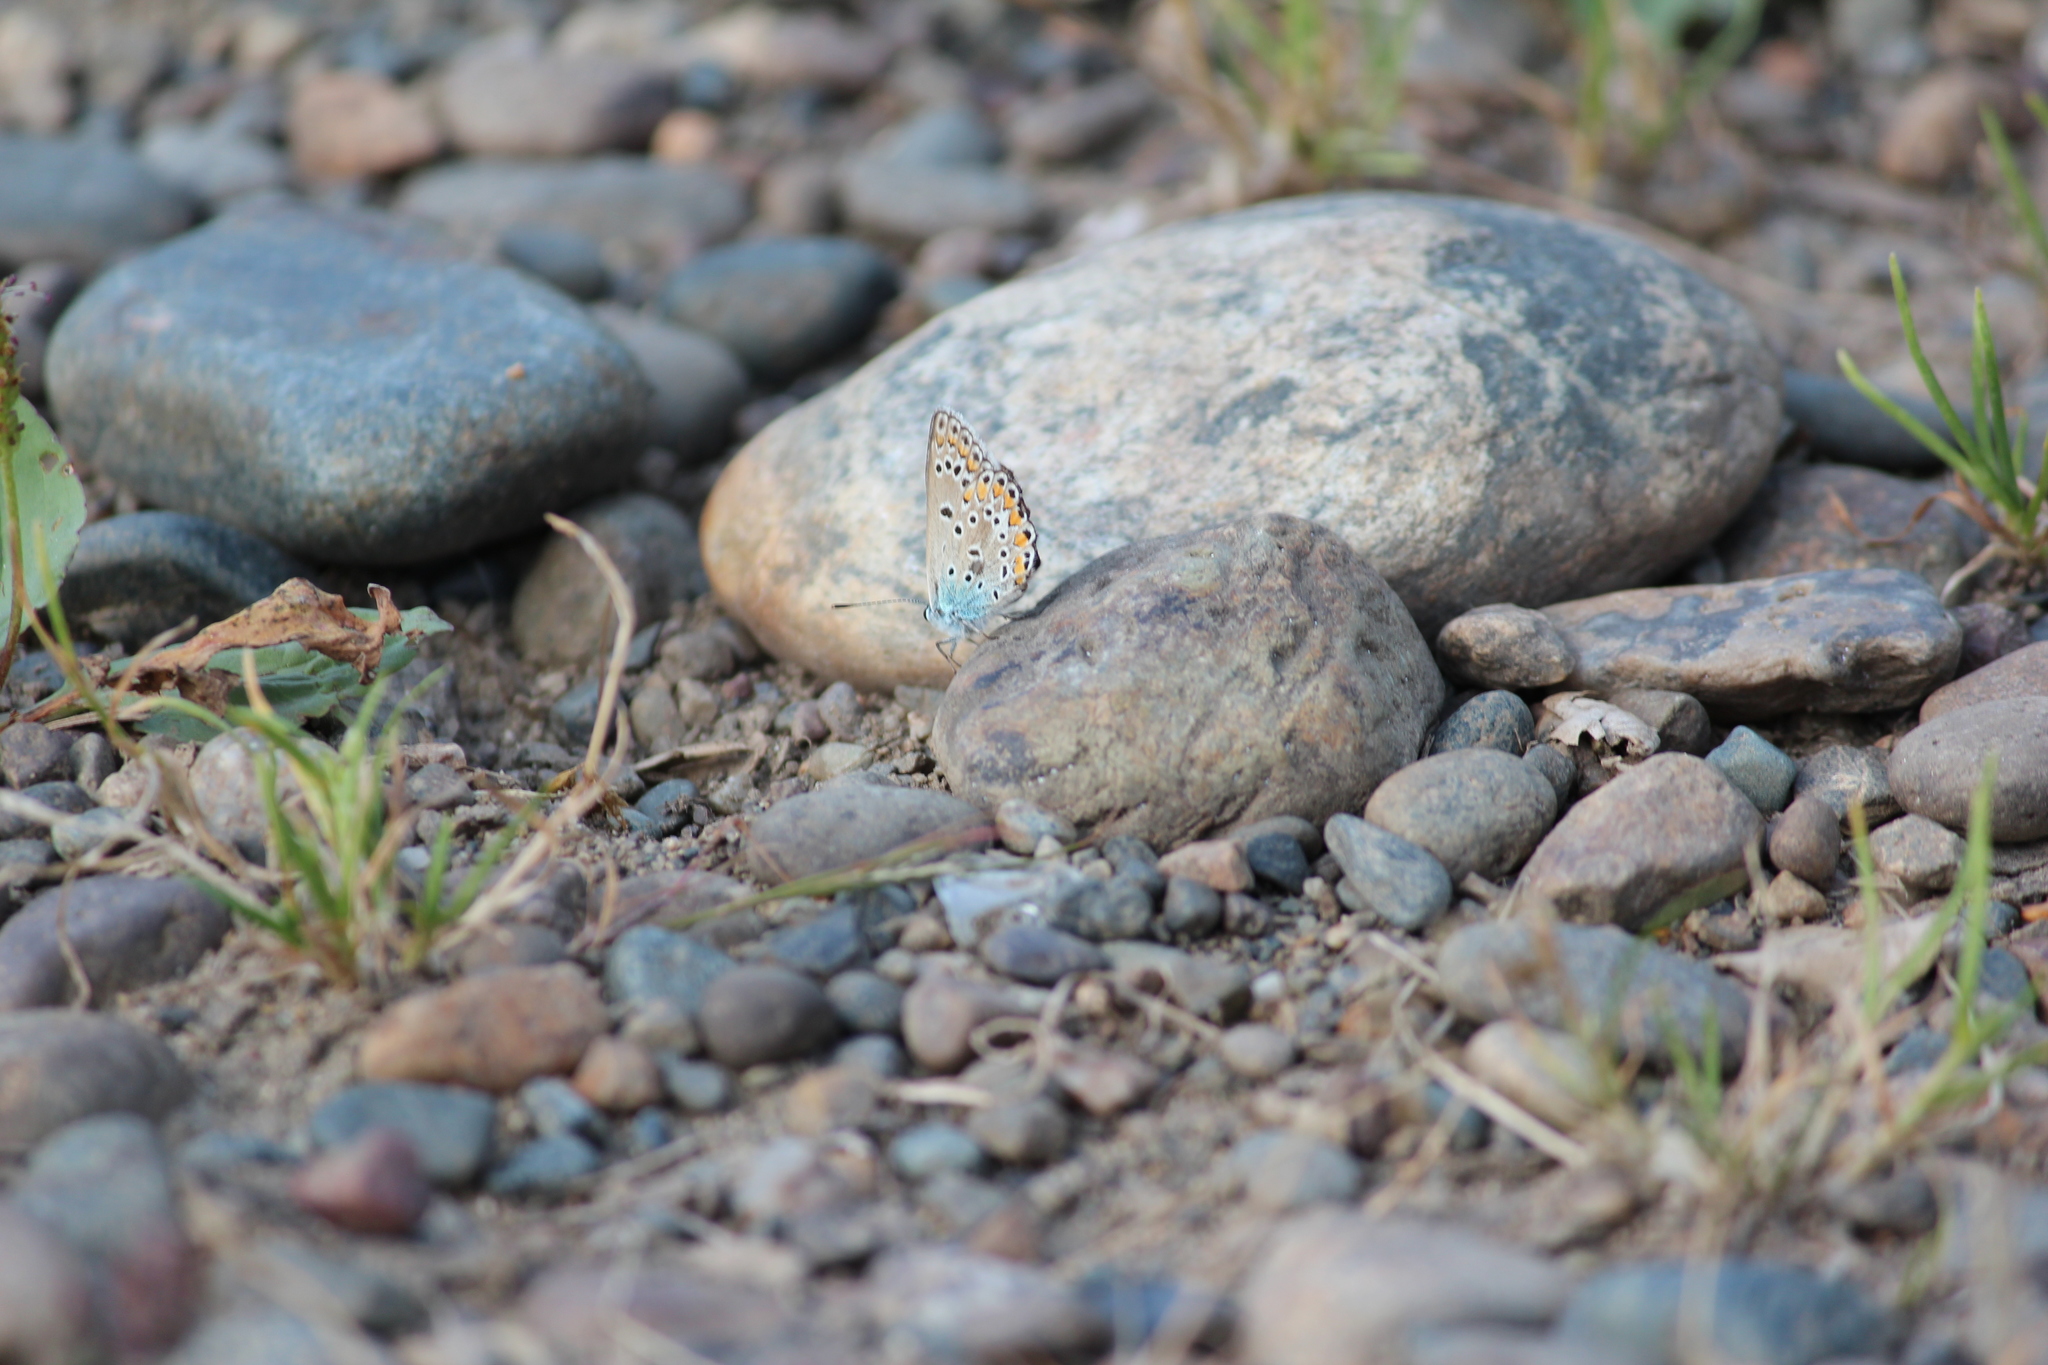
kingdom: Animalia
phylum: Arthropoda
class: Insecta
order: Lepidoptera
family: Lycaenidae
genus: Polyommatus
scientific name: Polyommatus icarus
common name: Common blue
